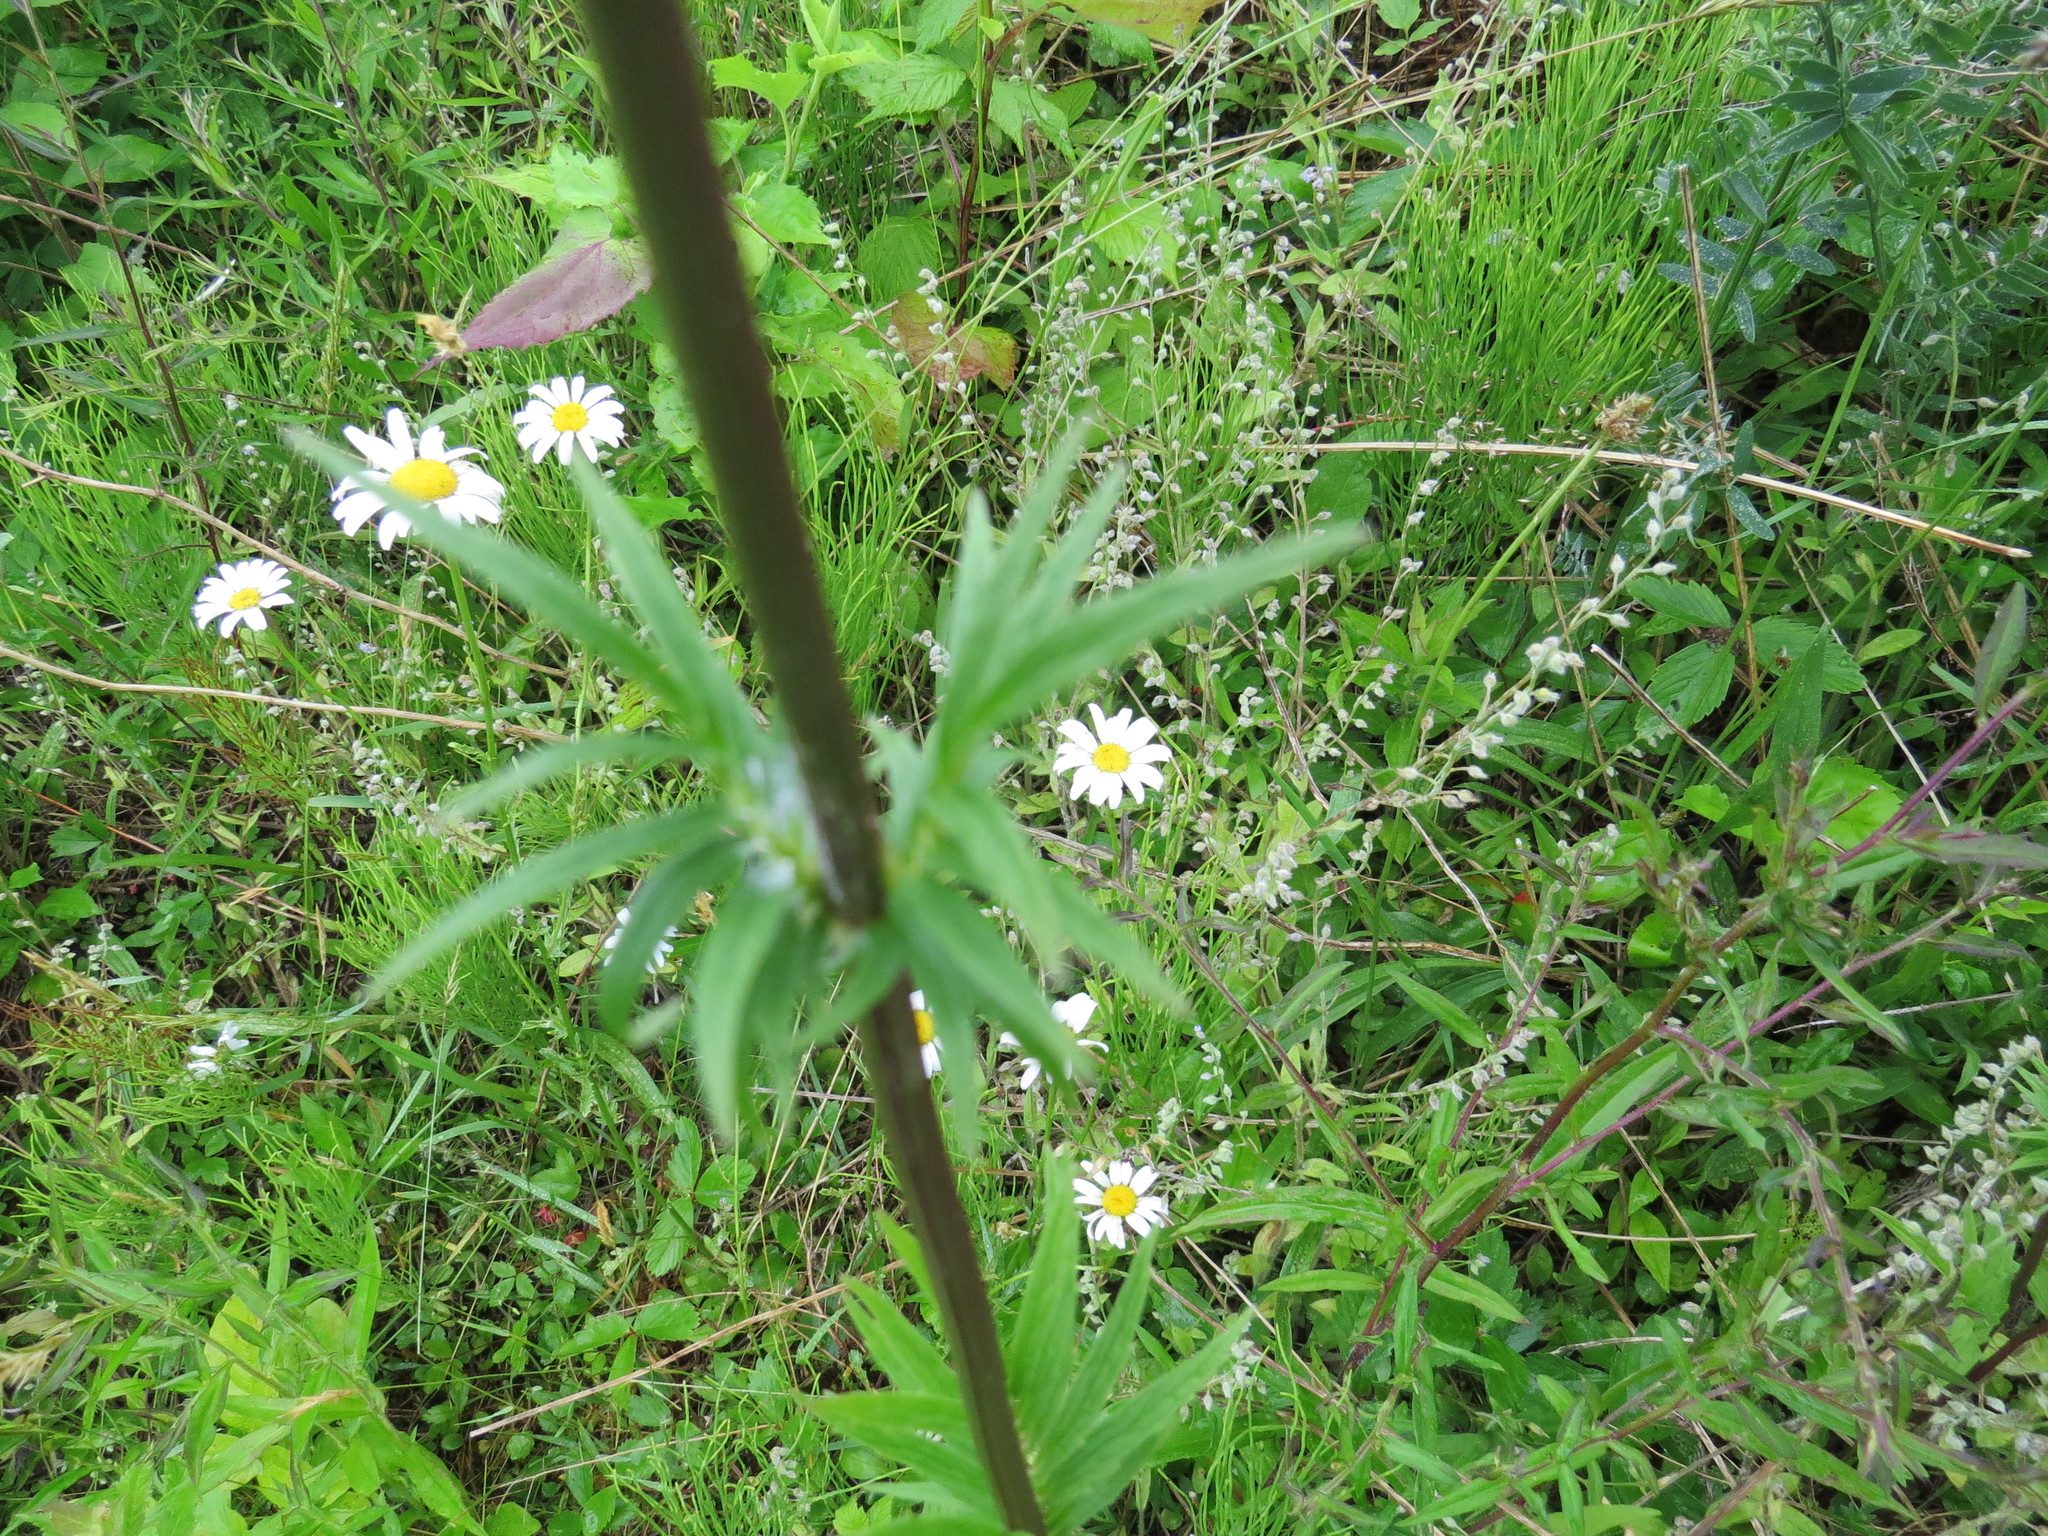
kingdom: Plantae
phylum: Tracheophyta
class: Magnoliopsida
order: Dipsacales
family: Caprifoliaceae
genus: Valeriana
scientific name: Valeriana officinalis
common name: Common valerian
